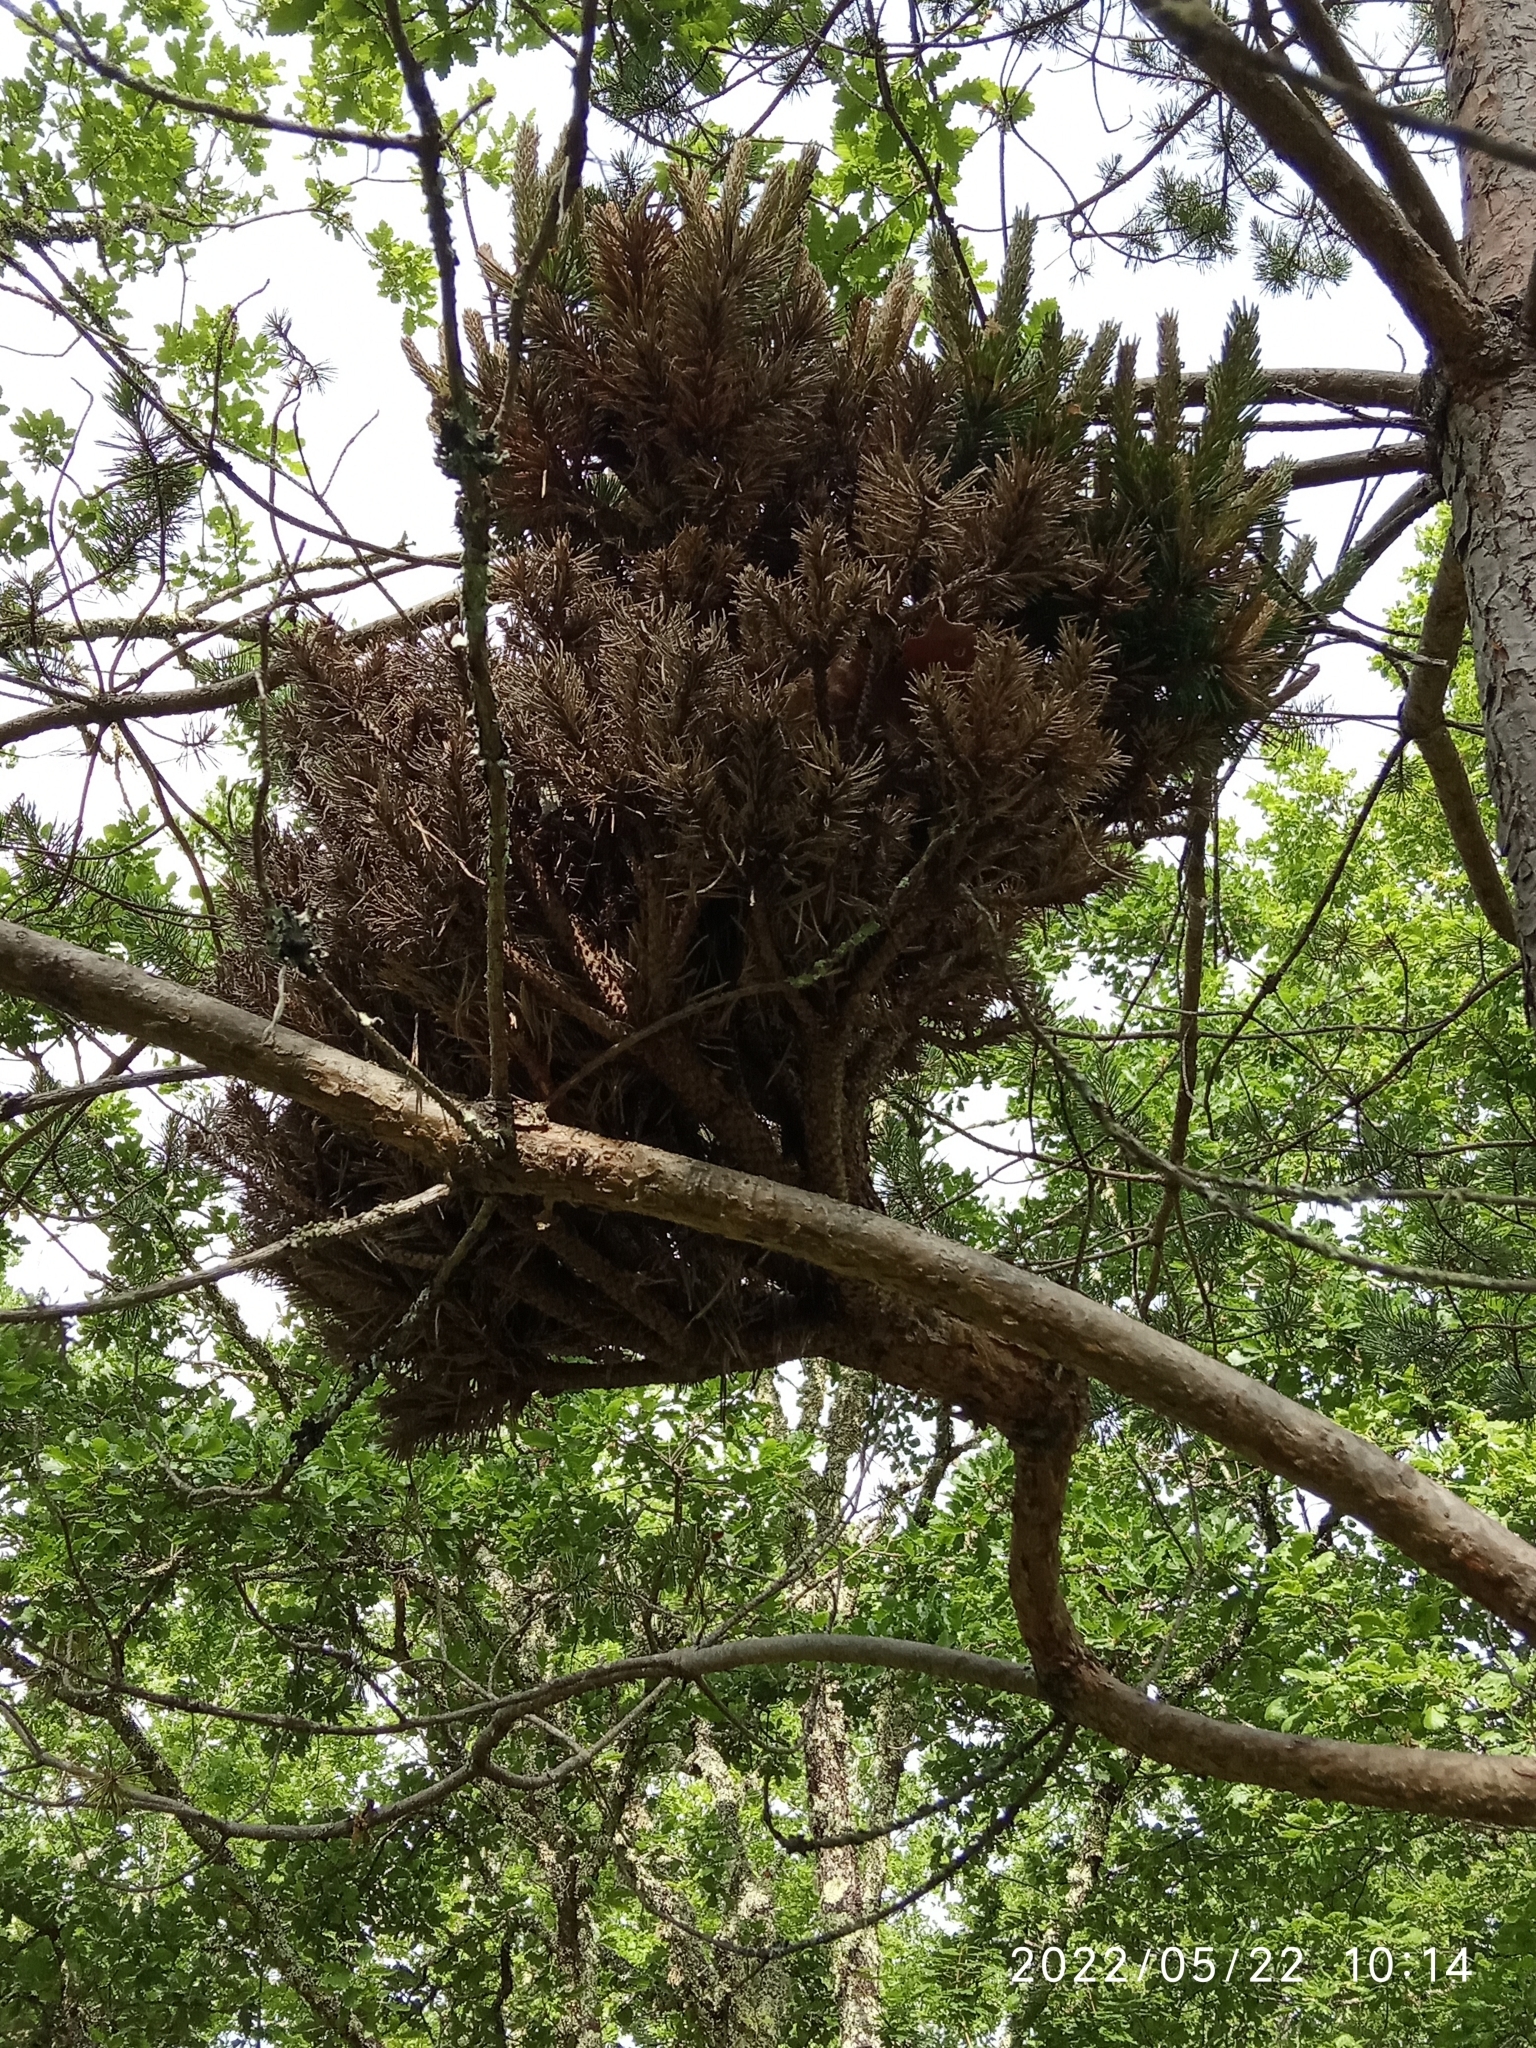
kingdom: Bacteria
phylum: Firmicutes
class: Bacilli
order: Acholeplasmatales
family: Acholeplasmataceae
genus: Phytoplasma
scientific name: Phytoplasma pini
